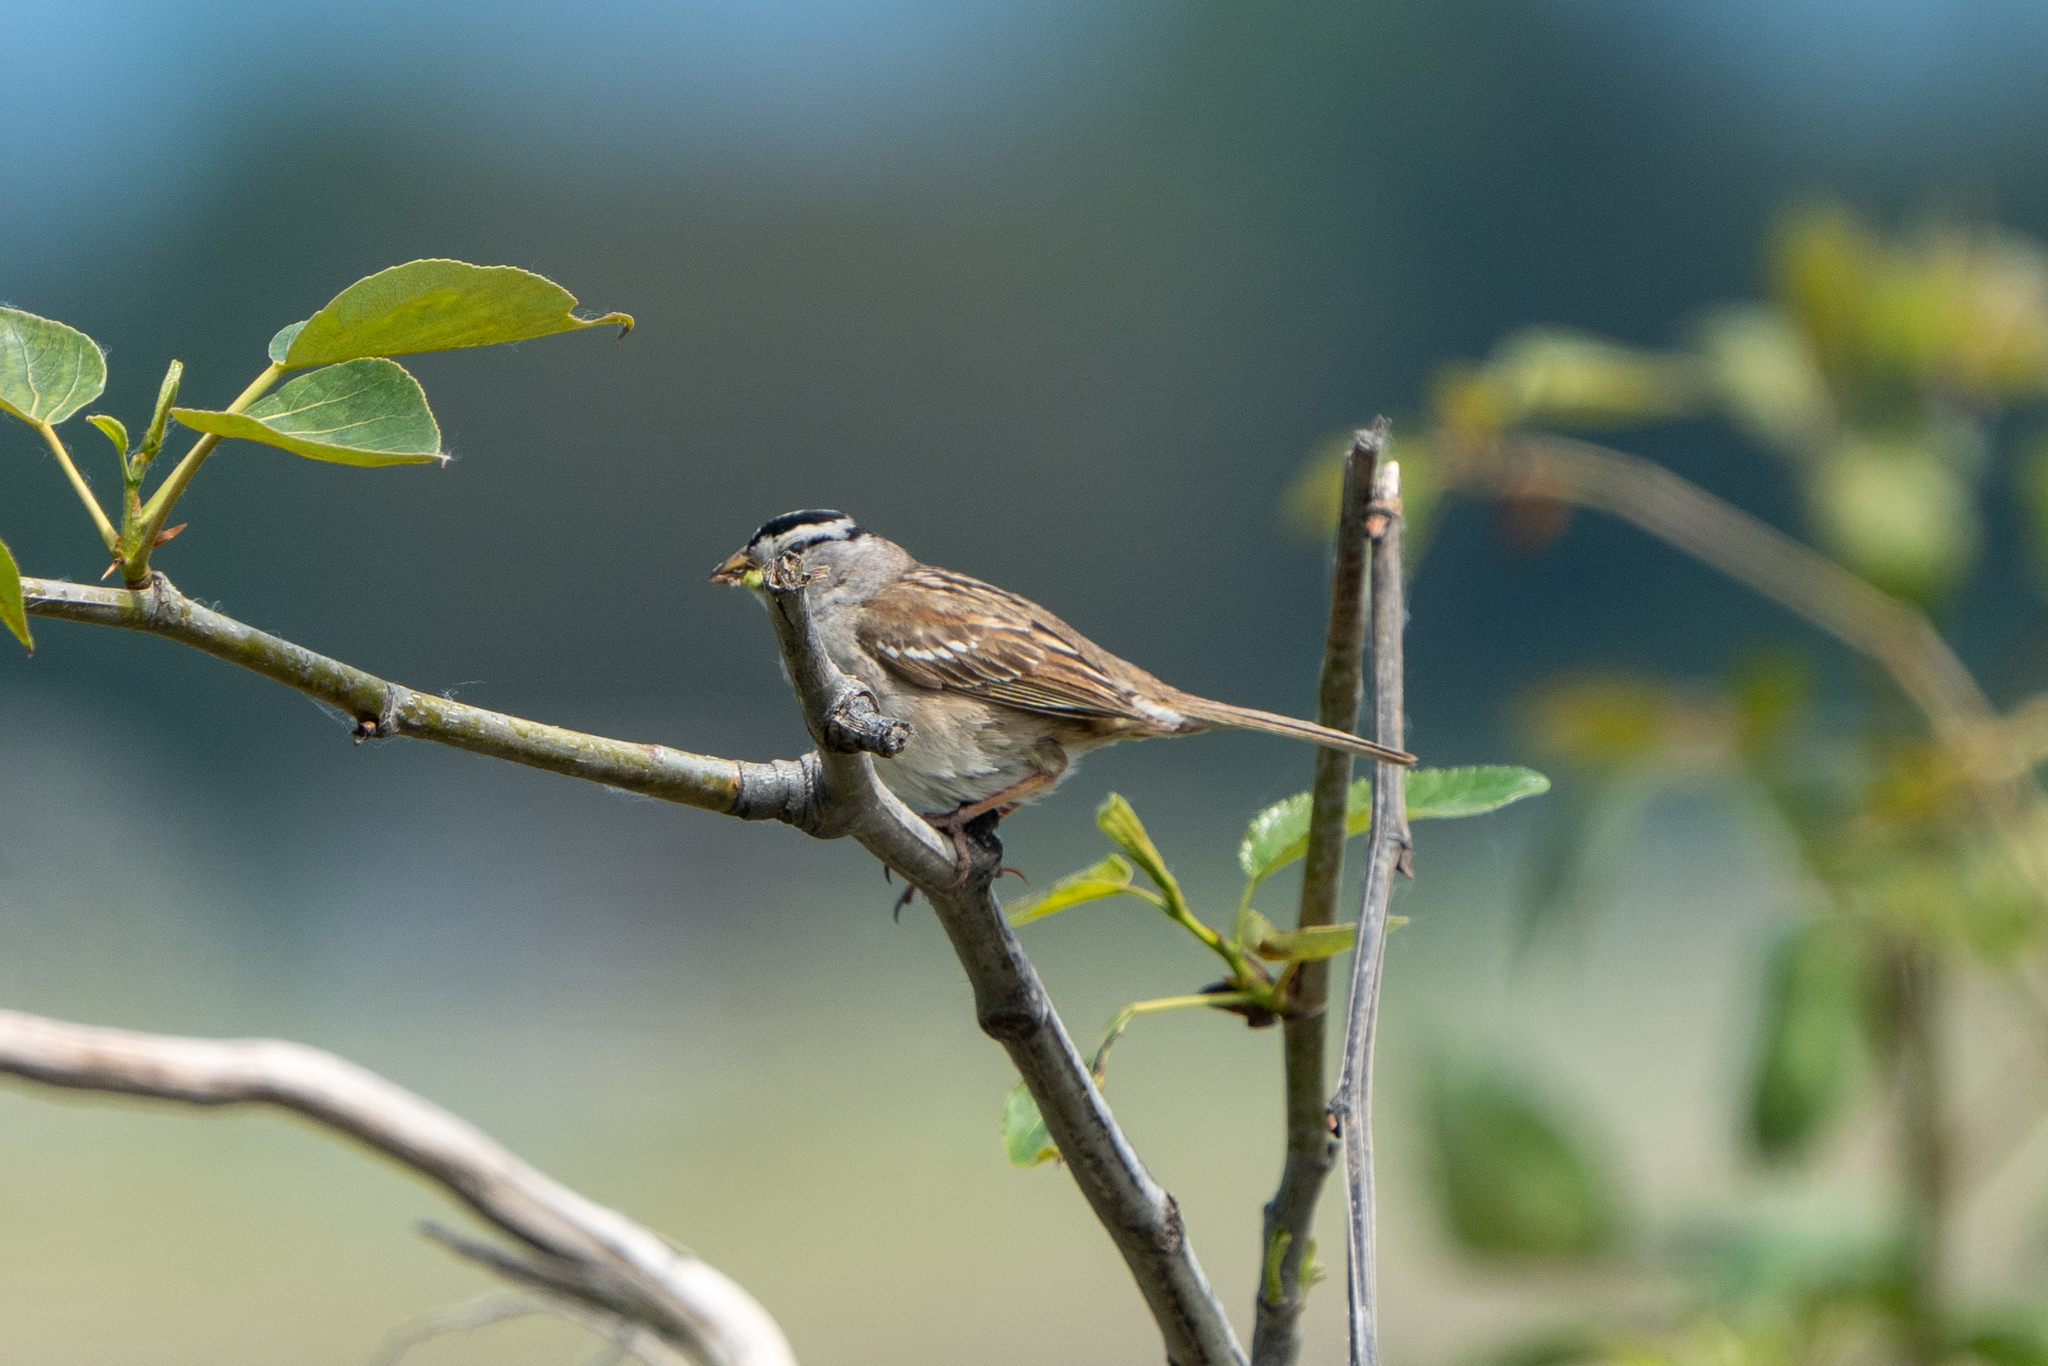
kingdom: Animalia
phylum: Chordata
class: Aves
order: Passeriformes
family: Passerellidae
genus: Zonotrichia
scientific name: Zonotrichia leucophrys
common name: White-crowned sparrow
